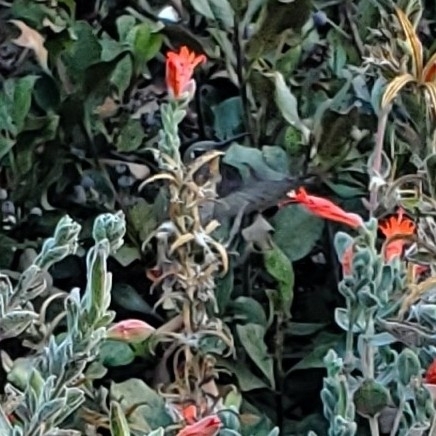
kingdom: Animalia
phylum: Chordata
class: Aves
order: Apodiformes
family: Trochilidae
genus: Calypte
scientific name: Calypte anna
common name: Anna's hummingbird
